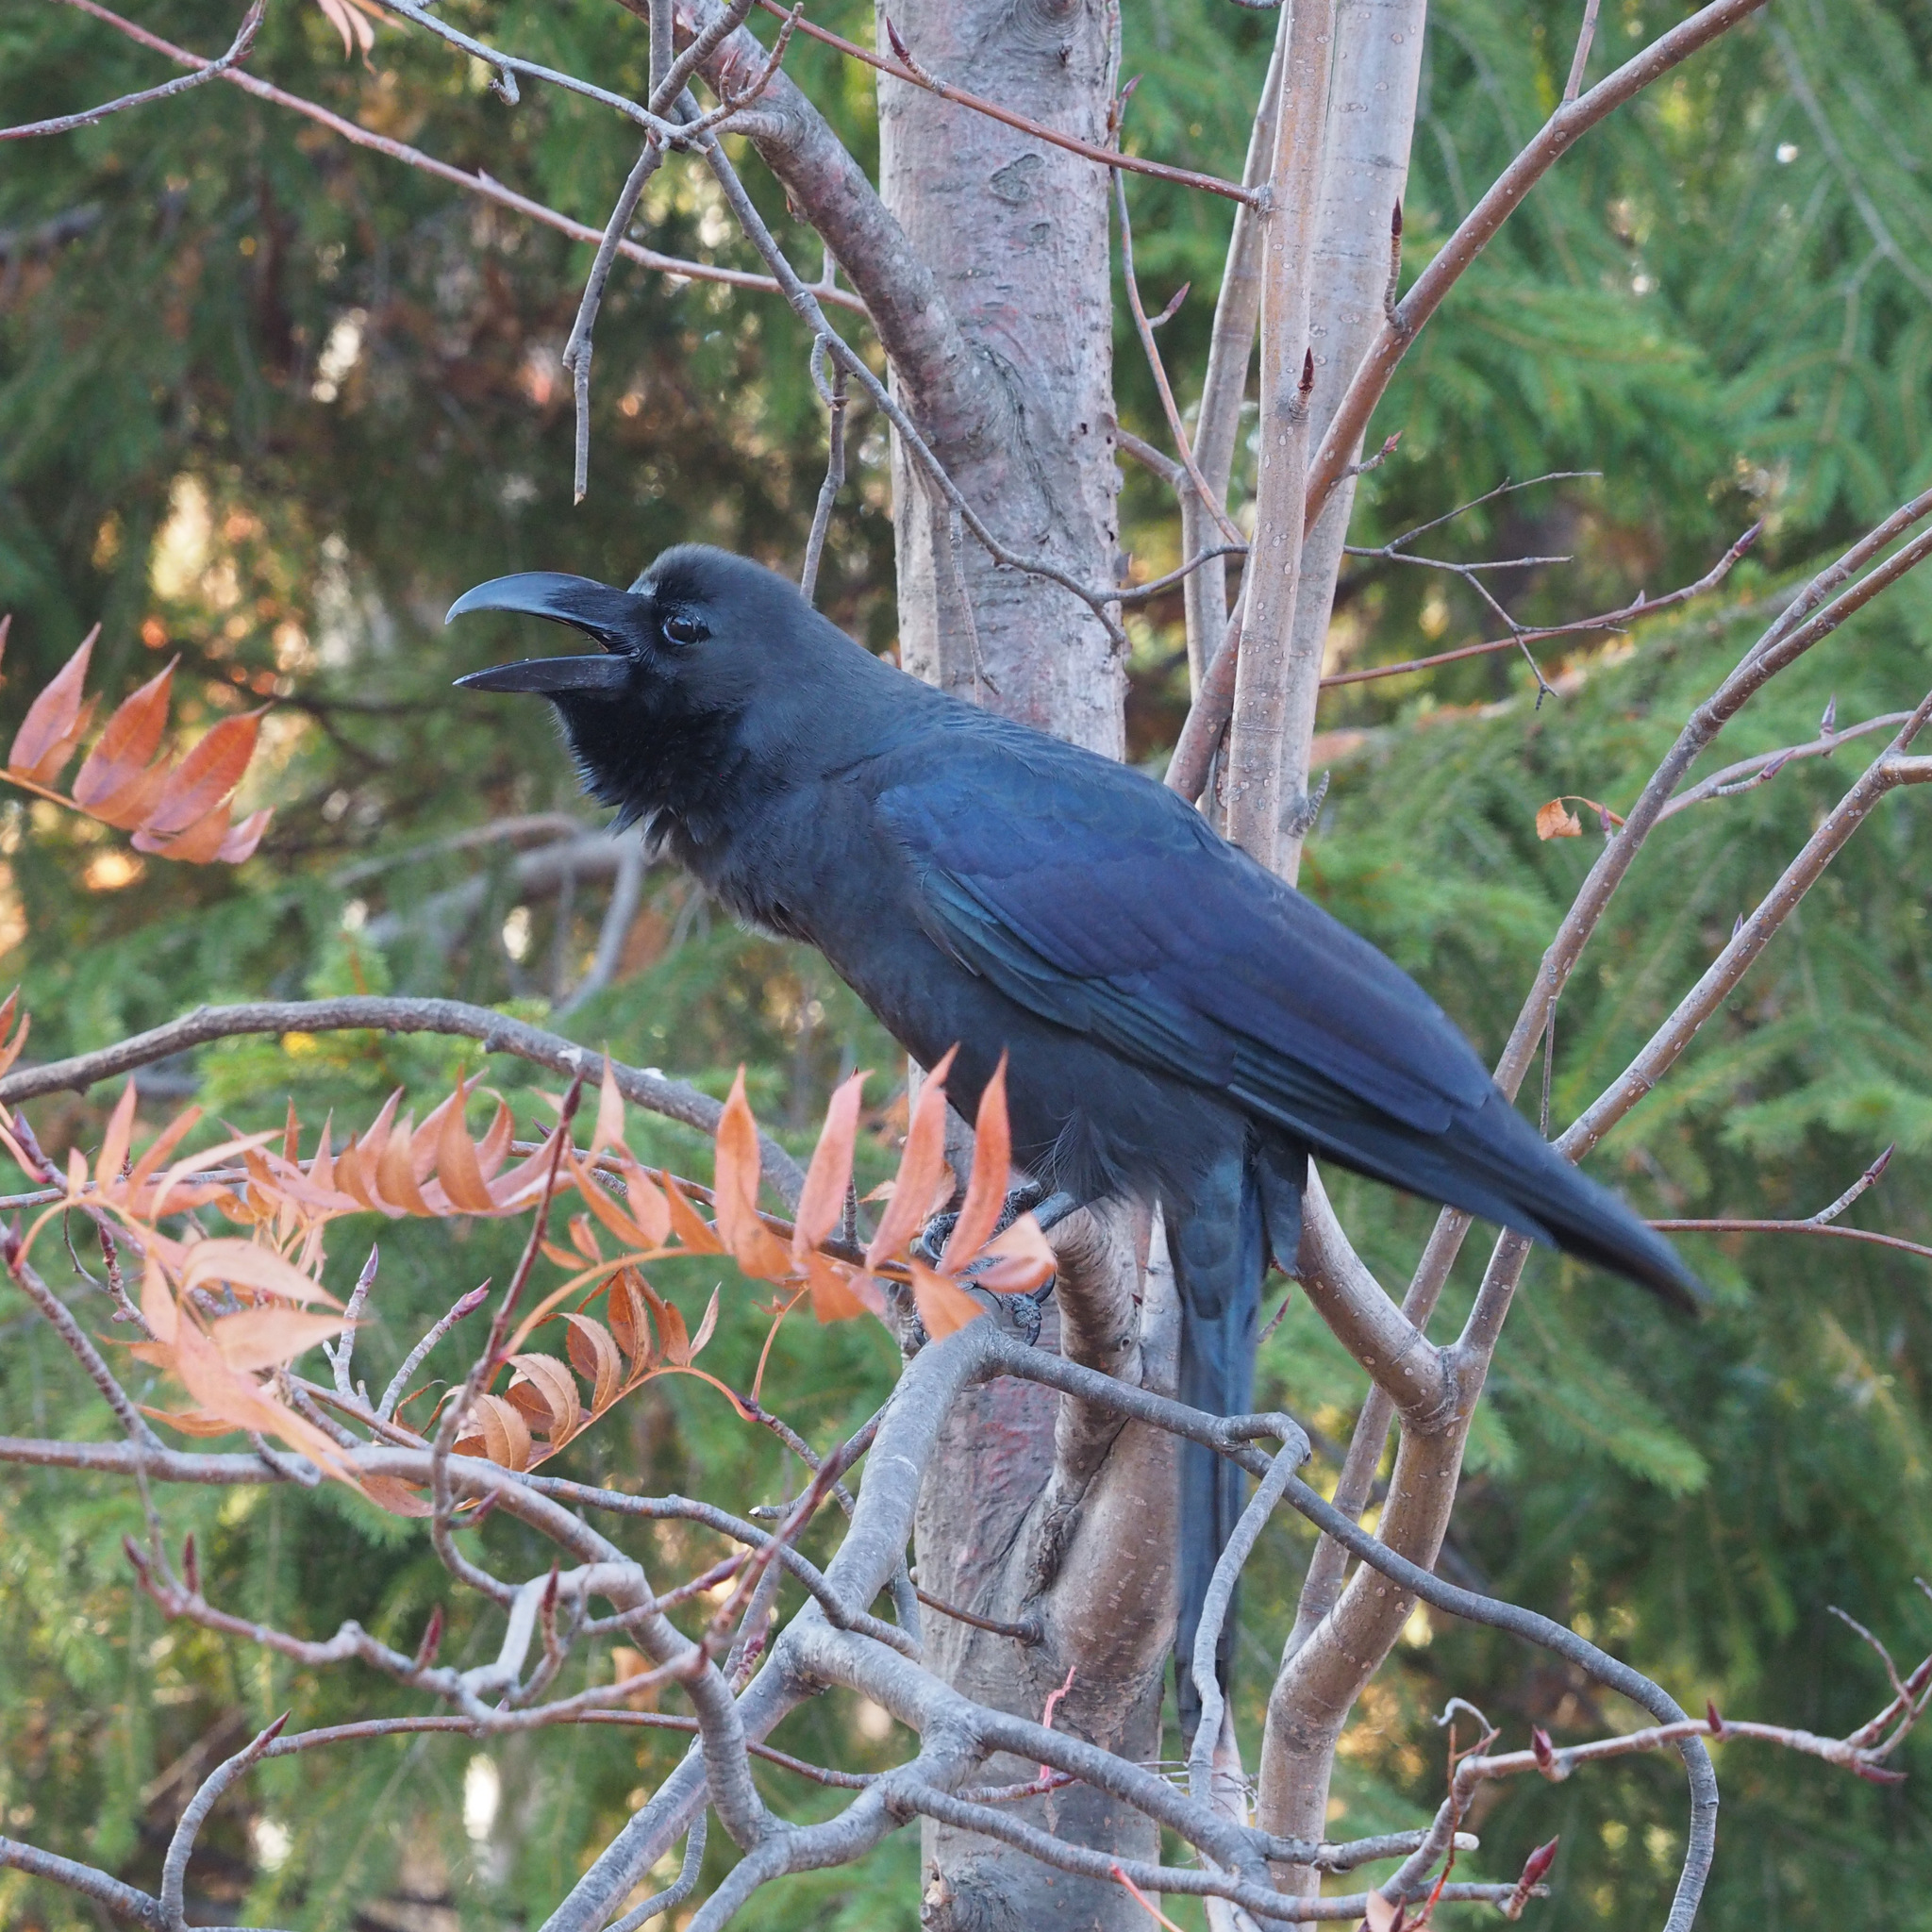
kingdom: Animalia
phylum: Chordata
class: Aves
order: Passeriformes
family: Corvidae
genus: Corvus
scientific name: Corvus macrorhynchos
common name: Large-billed crow
